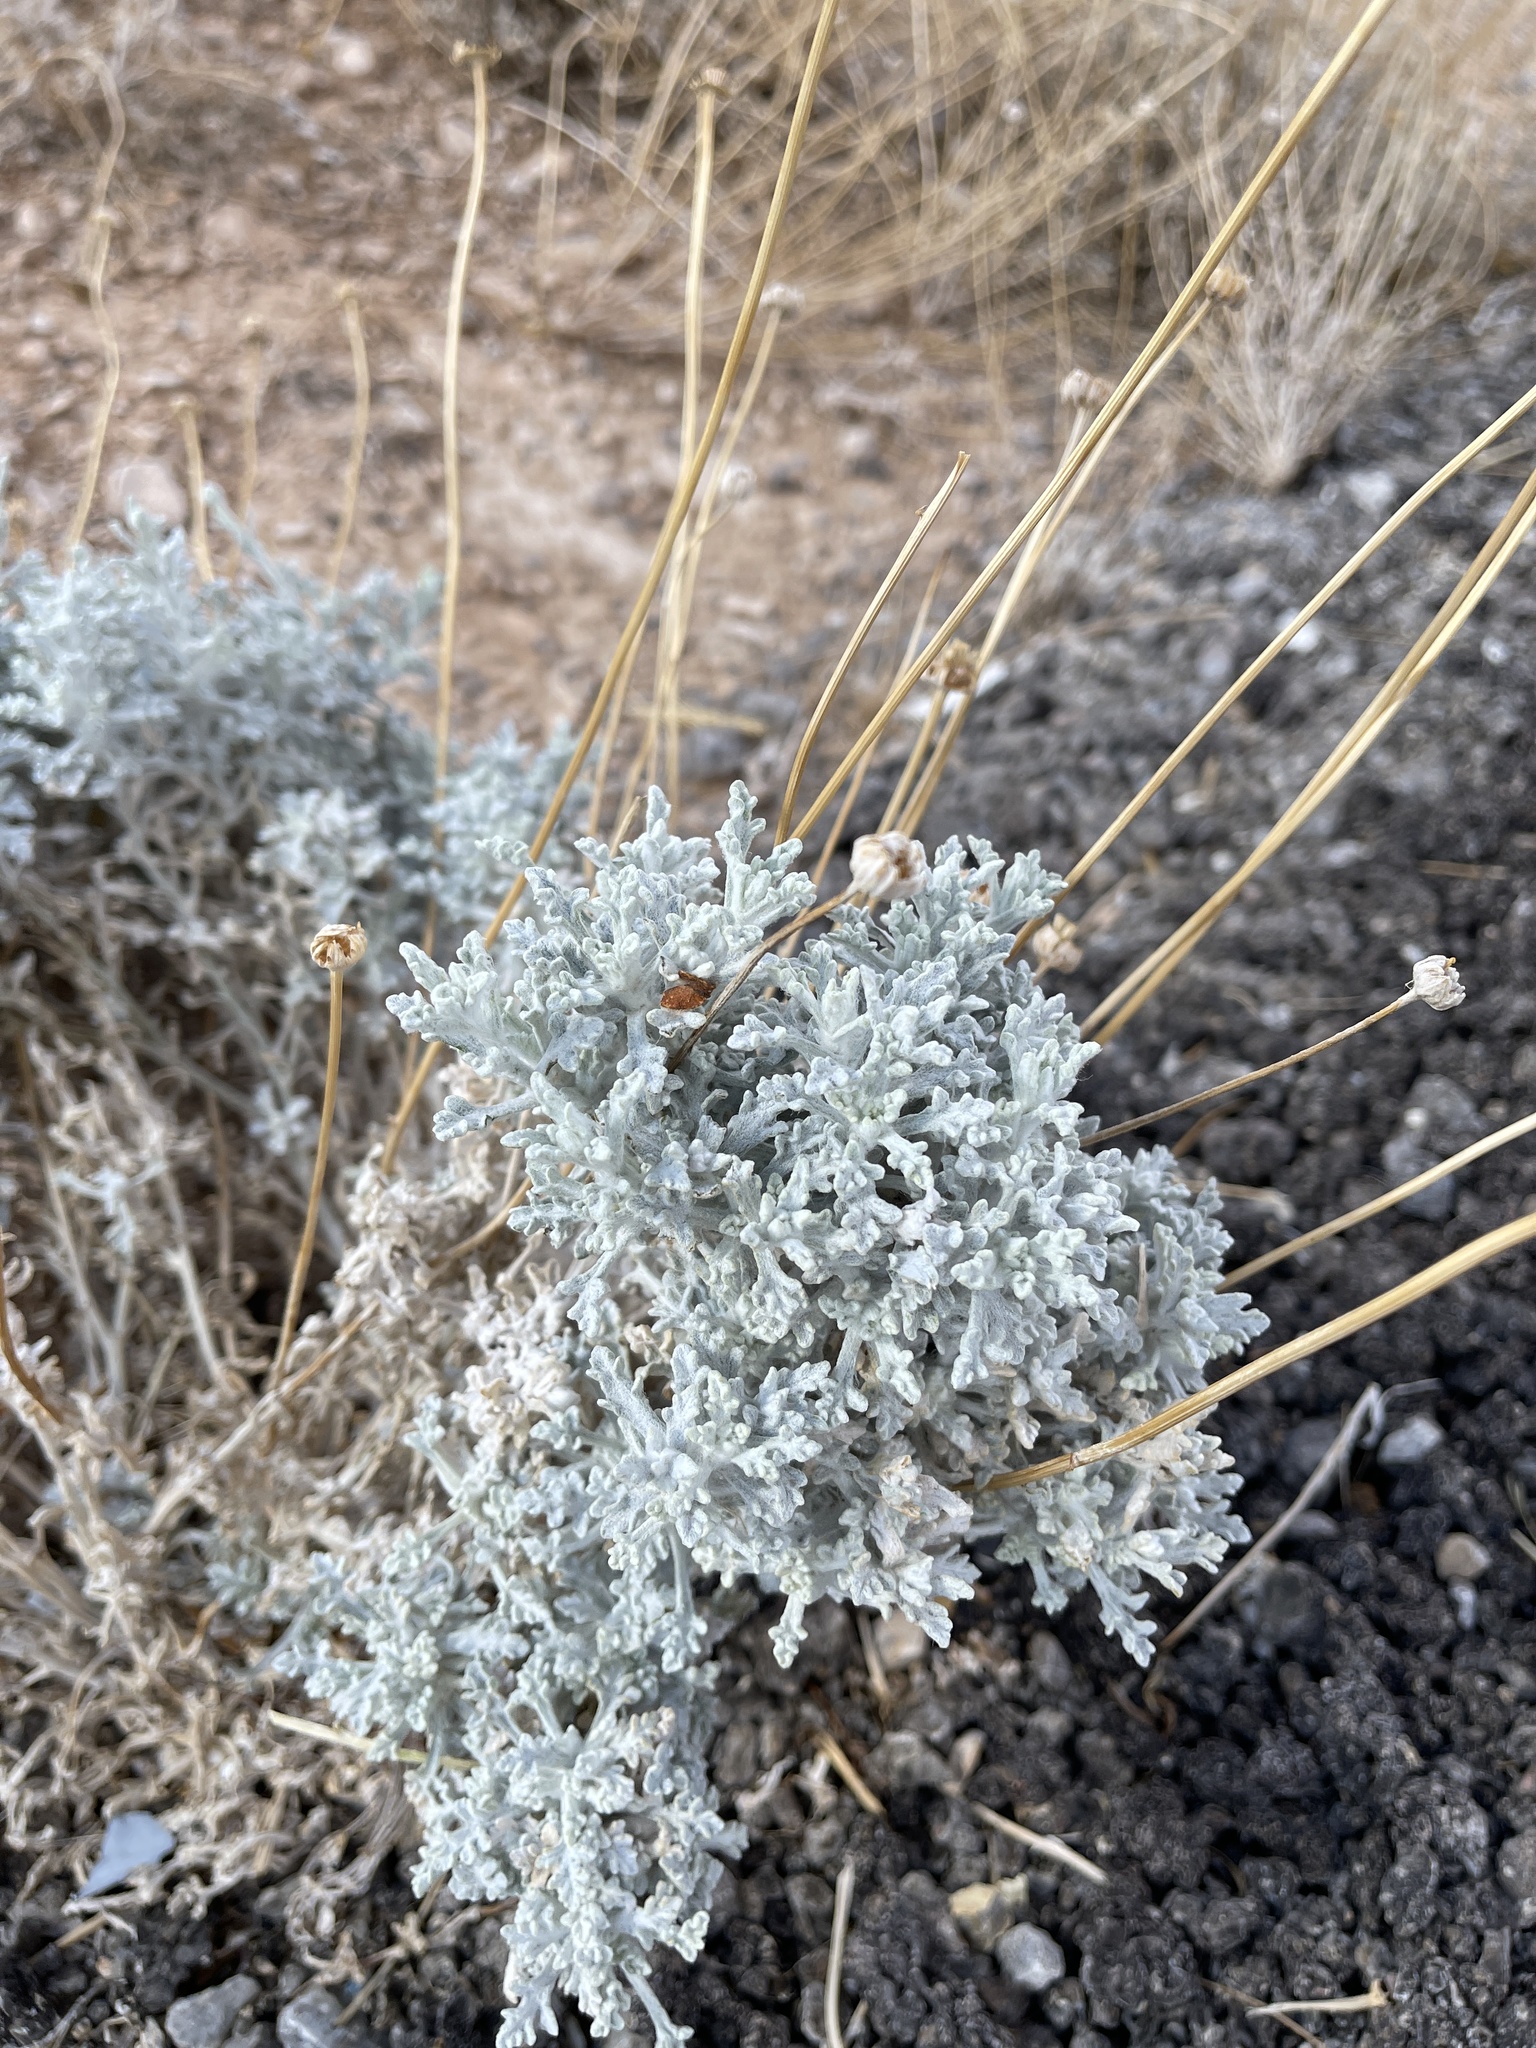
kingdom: Plantae
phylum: Tracheophyta
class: Magnoliopsida
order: Asterales
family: Asteraceae
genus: Baileya
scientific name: Baileya multiradiata
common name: Desert-marigold
